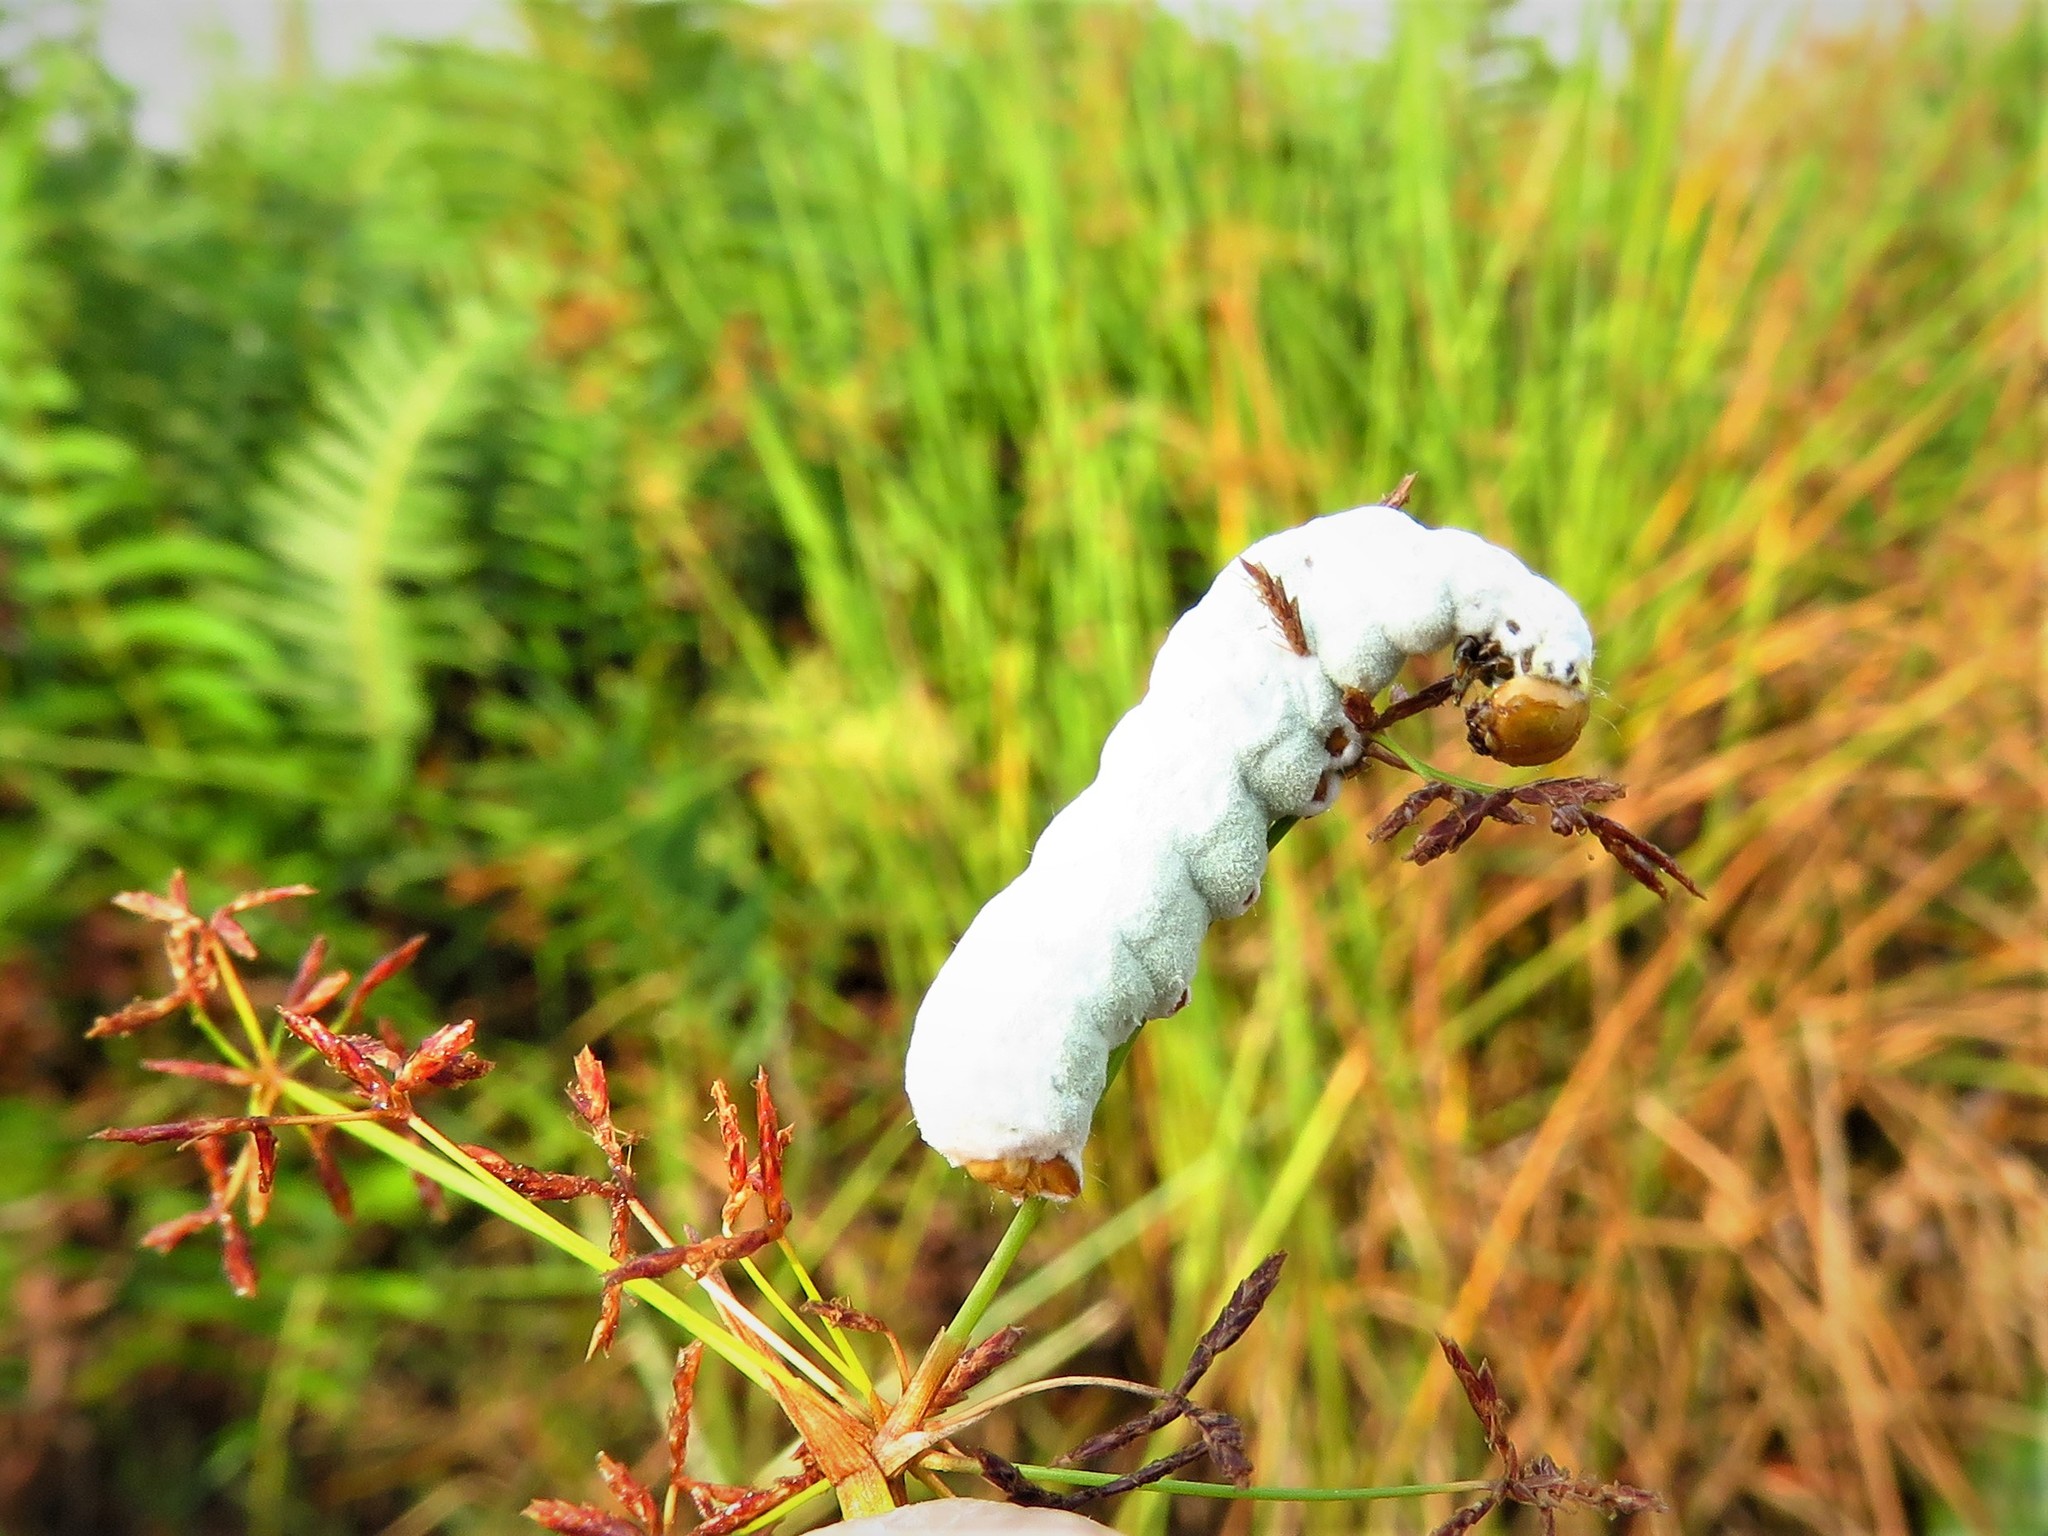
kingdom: Fungi
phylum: Ascomycota
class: Sordariomycetes
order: Hypocreales
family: Clavicipitaceae
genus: Metarhizium
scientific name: Metarhizium rileyi
